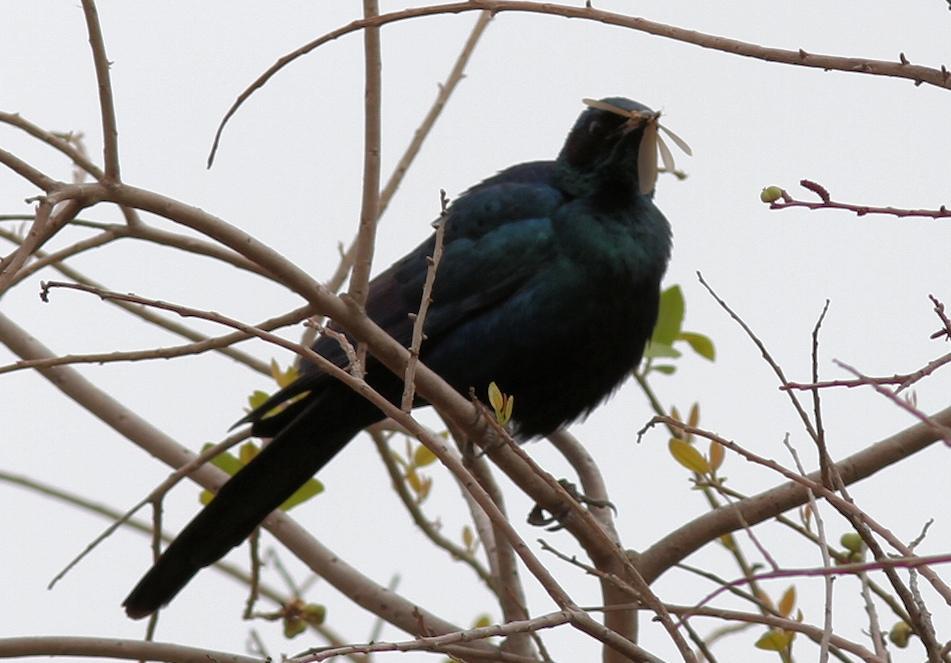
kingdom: Animalia
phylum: Chordata
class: Aves
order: Passeriformes
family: Sturnidae
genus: Lamprotornis
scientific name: Lamprotornis australis
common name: Burchell's starling
